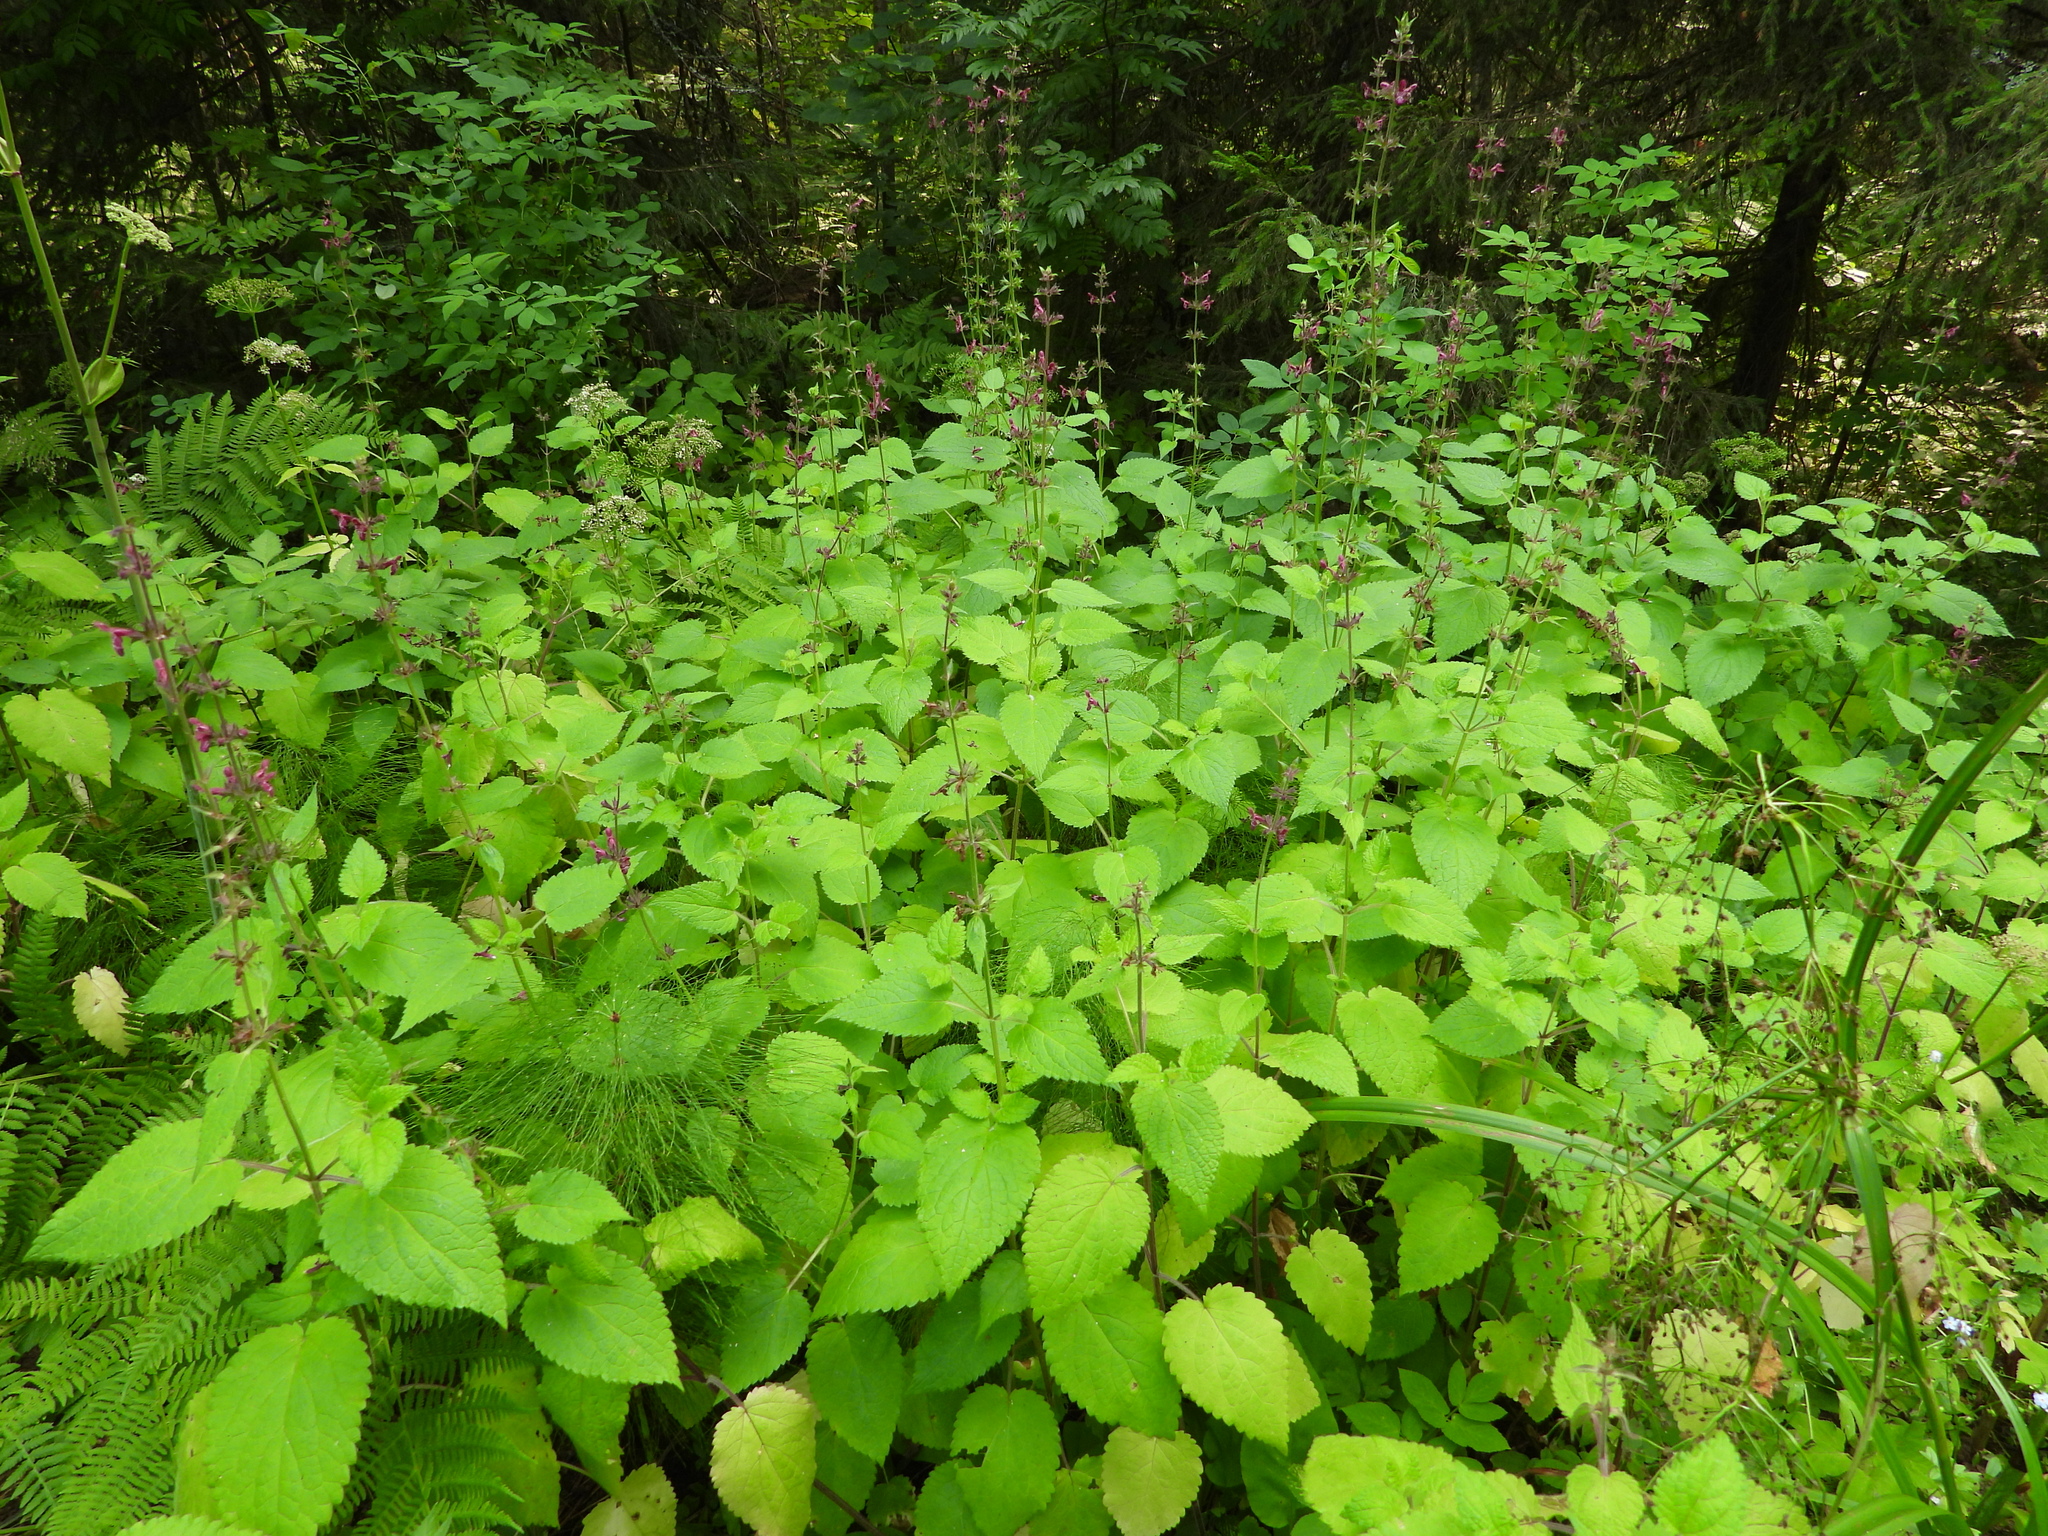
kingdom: Plantae
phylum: Tracheophyta
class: Magnoliopsida
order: Lamiales
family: Lamiaceae
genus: Stachys
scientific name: Stachys sylvatica
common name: Hedge woundwort
